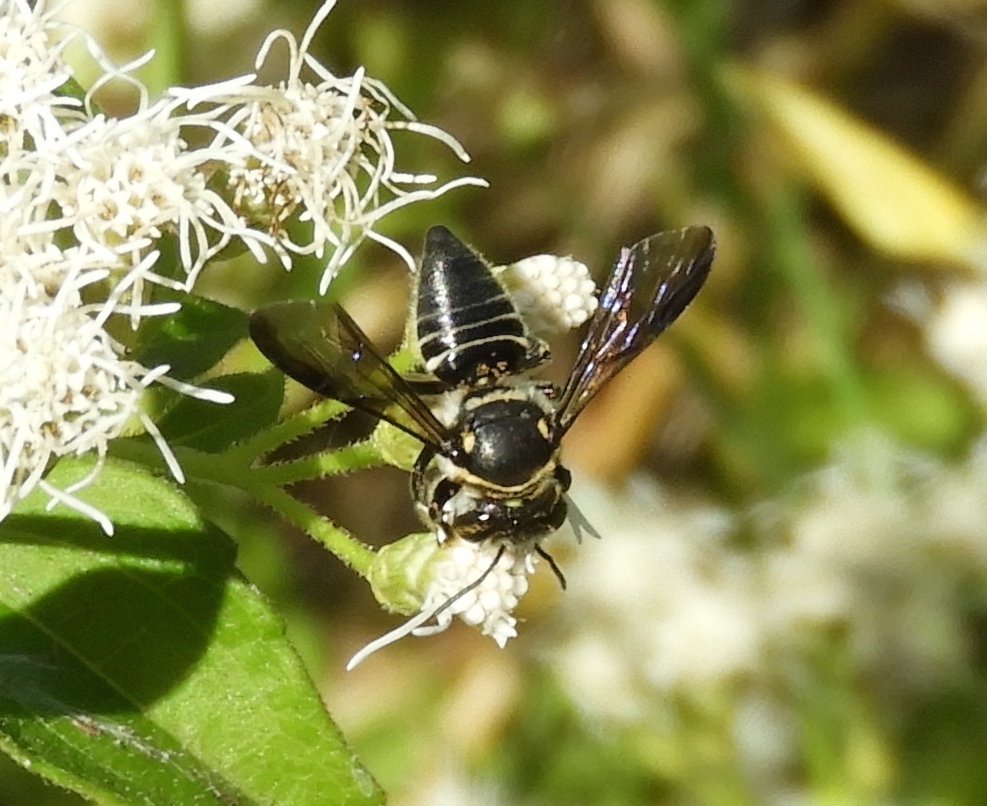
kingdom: Animalia
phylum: Arthropoda
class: Insecta
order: Hymenoptera
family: Megachilidae
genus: Megachile
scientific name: Megachile
